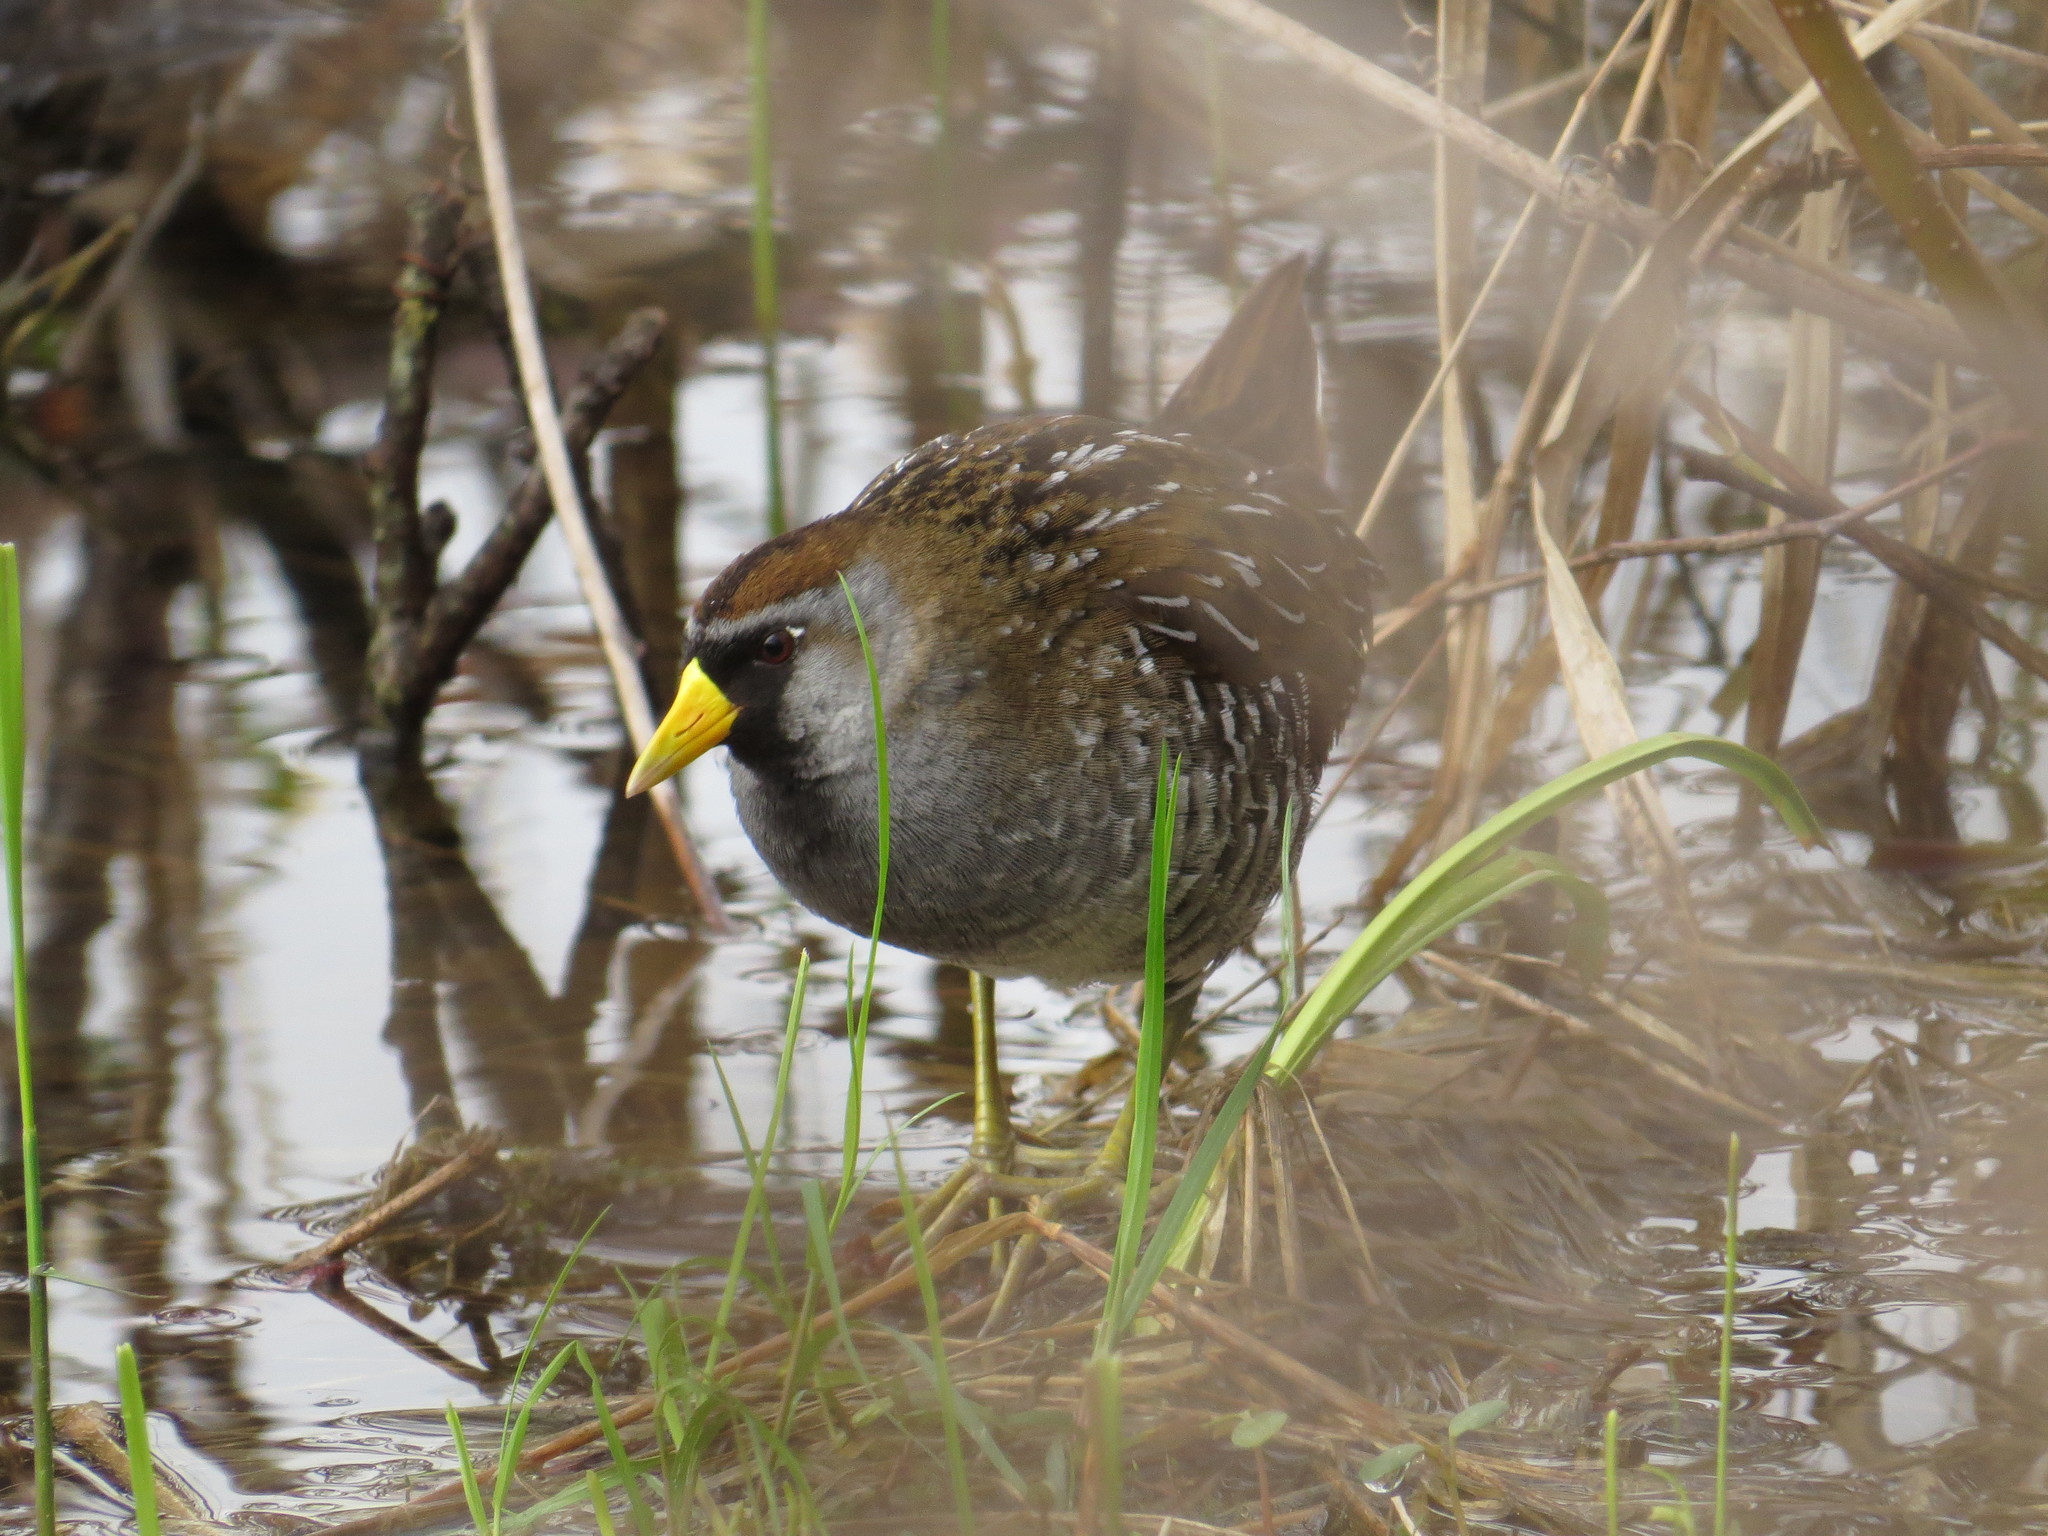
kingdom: Animalia
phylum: Chordata
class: Aves
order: Gruiformes
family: Rallidae
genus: Porzana
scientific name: Porzana carolina
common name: Sora
